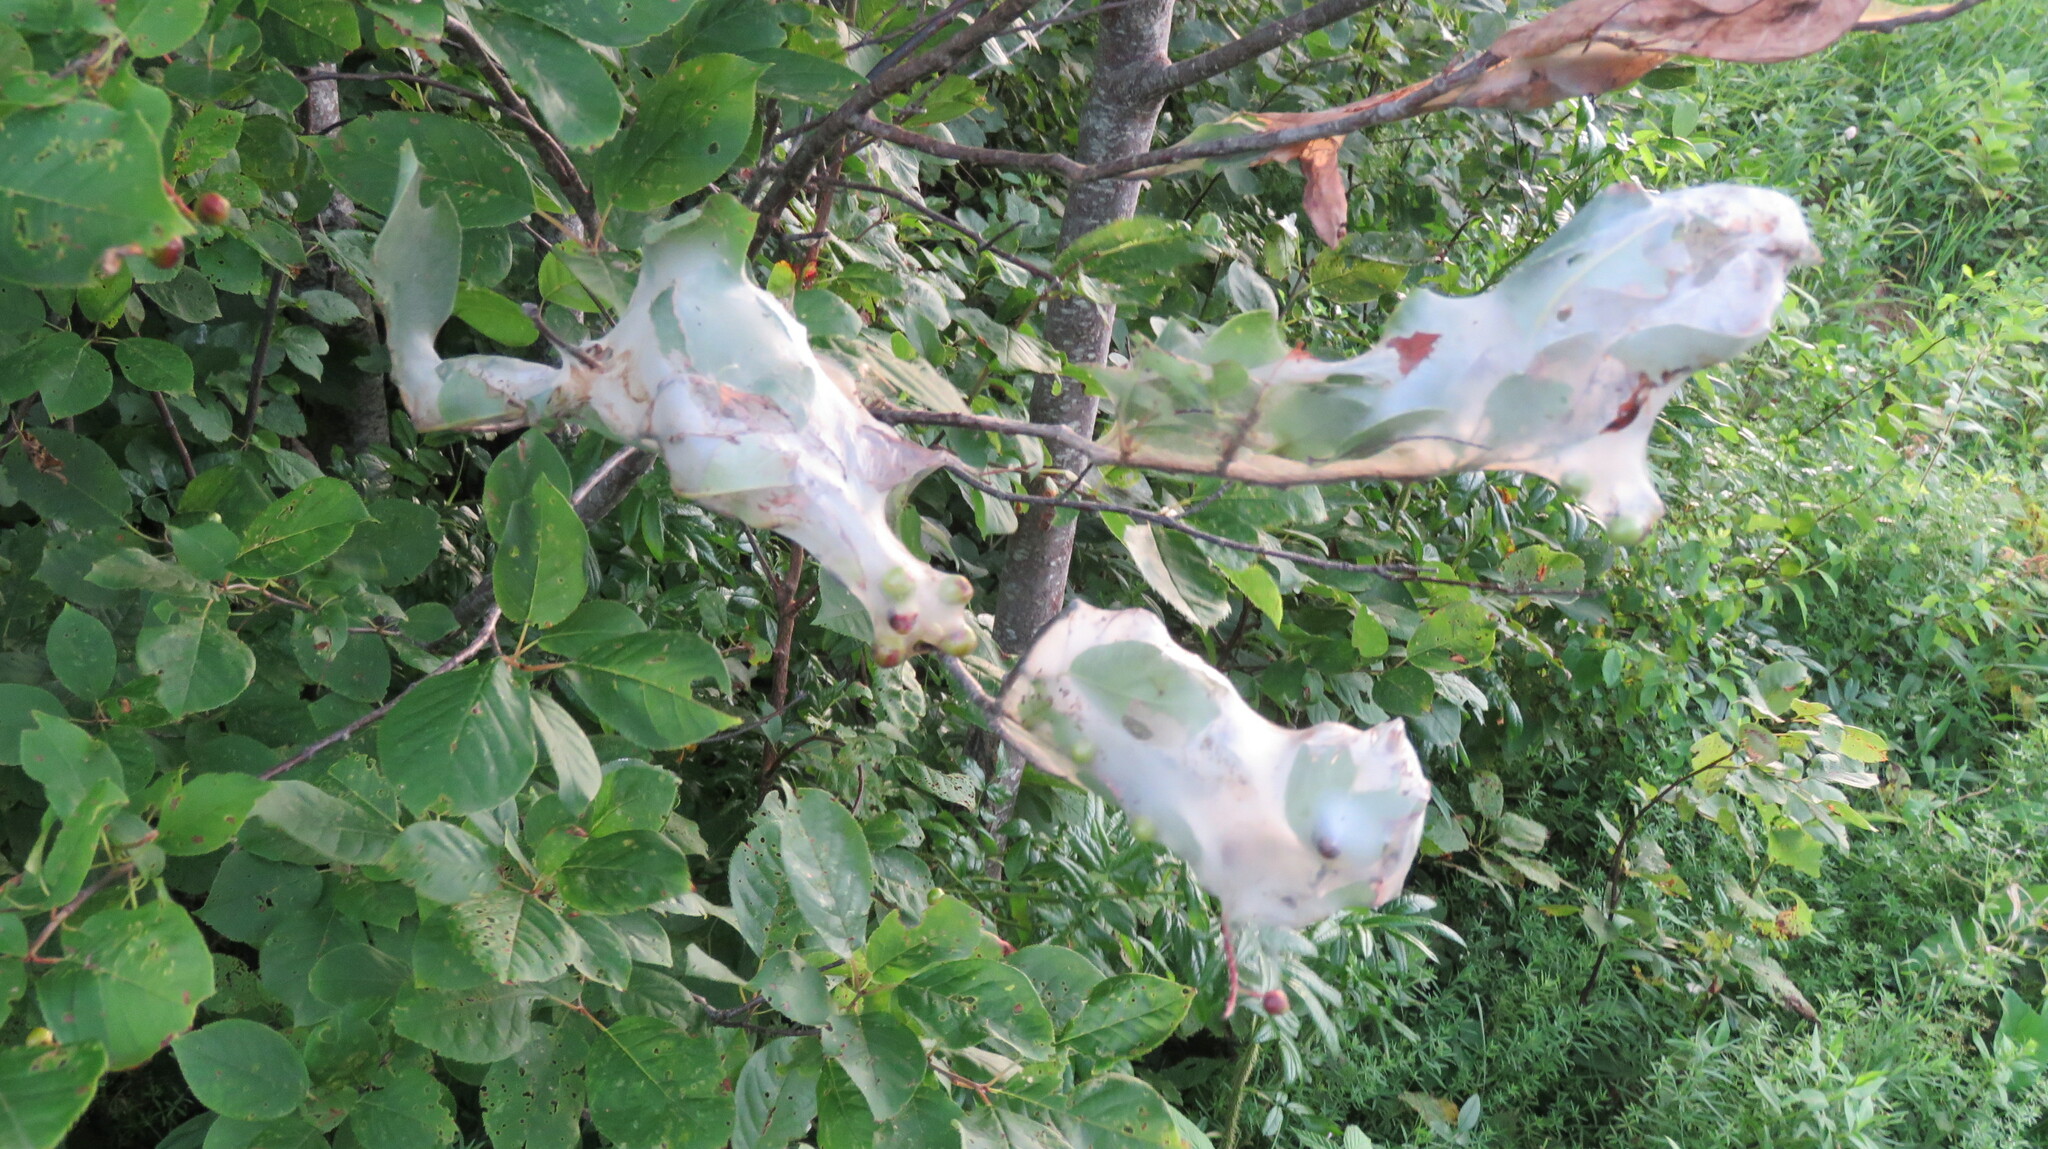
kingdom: Animalia
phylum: Arthropoda
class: Insecta
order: Lepidoptera
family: Erebidae
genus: Hyphantria
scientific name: Hyphantria cunea
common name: American white moth
